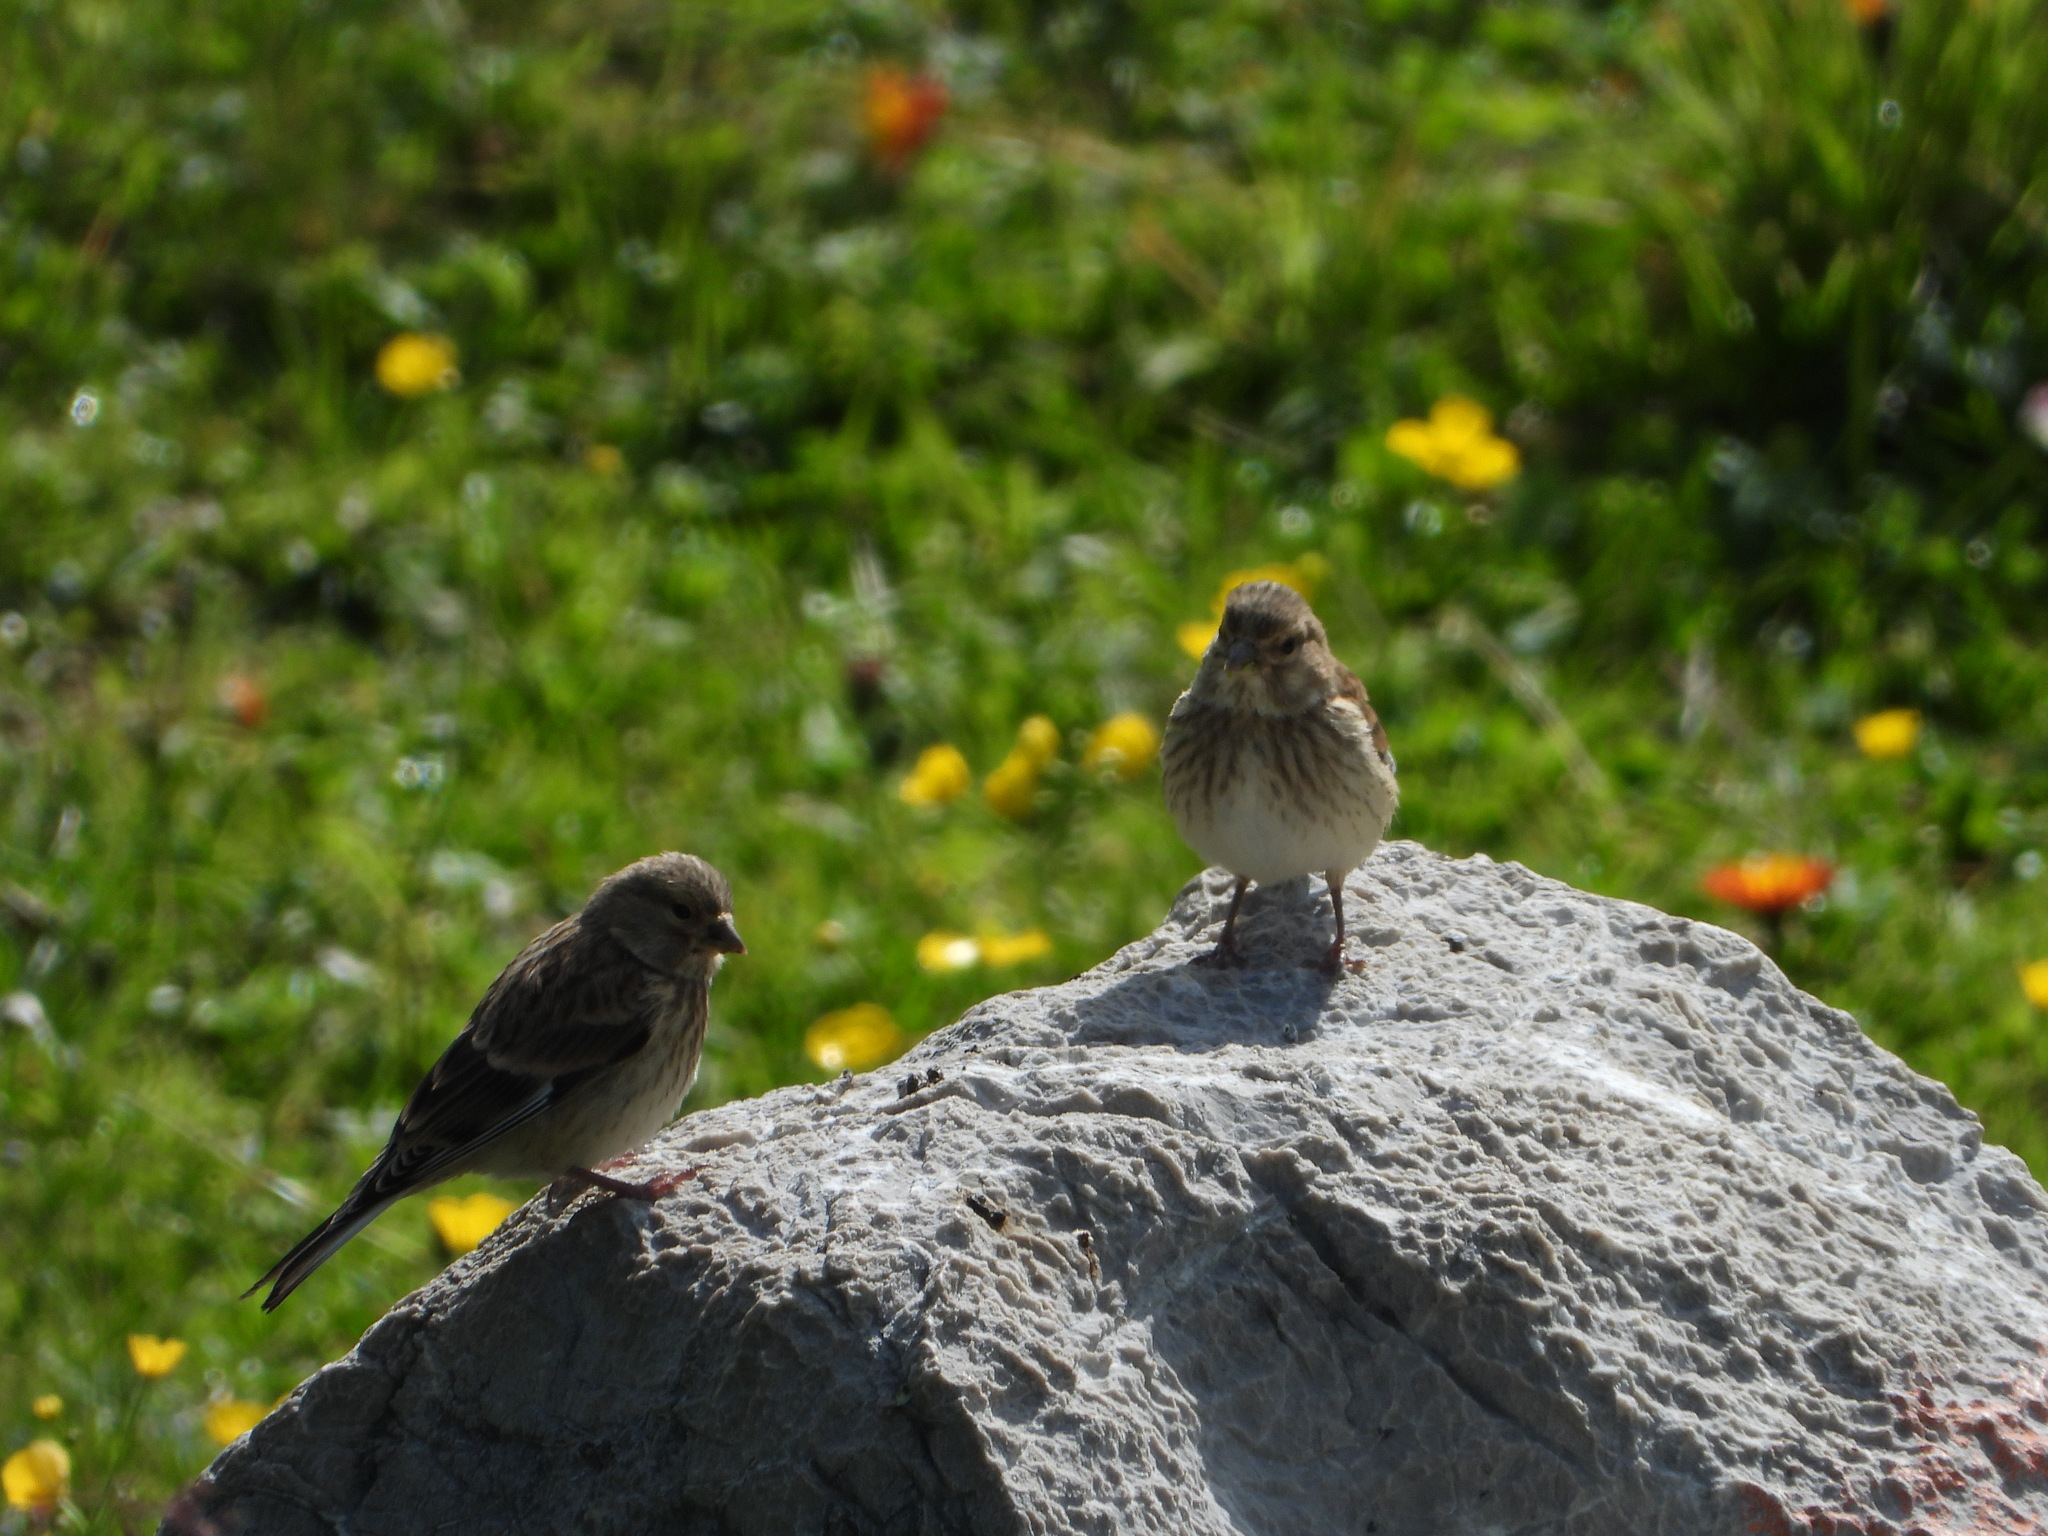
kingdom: Animalia
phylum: Chordata
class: Aves
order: Passeriformes
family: Fringillidae
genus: Linaria
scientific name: Linaria cannabina
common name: Common linnet
